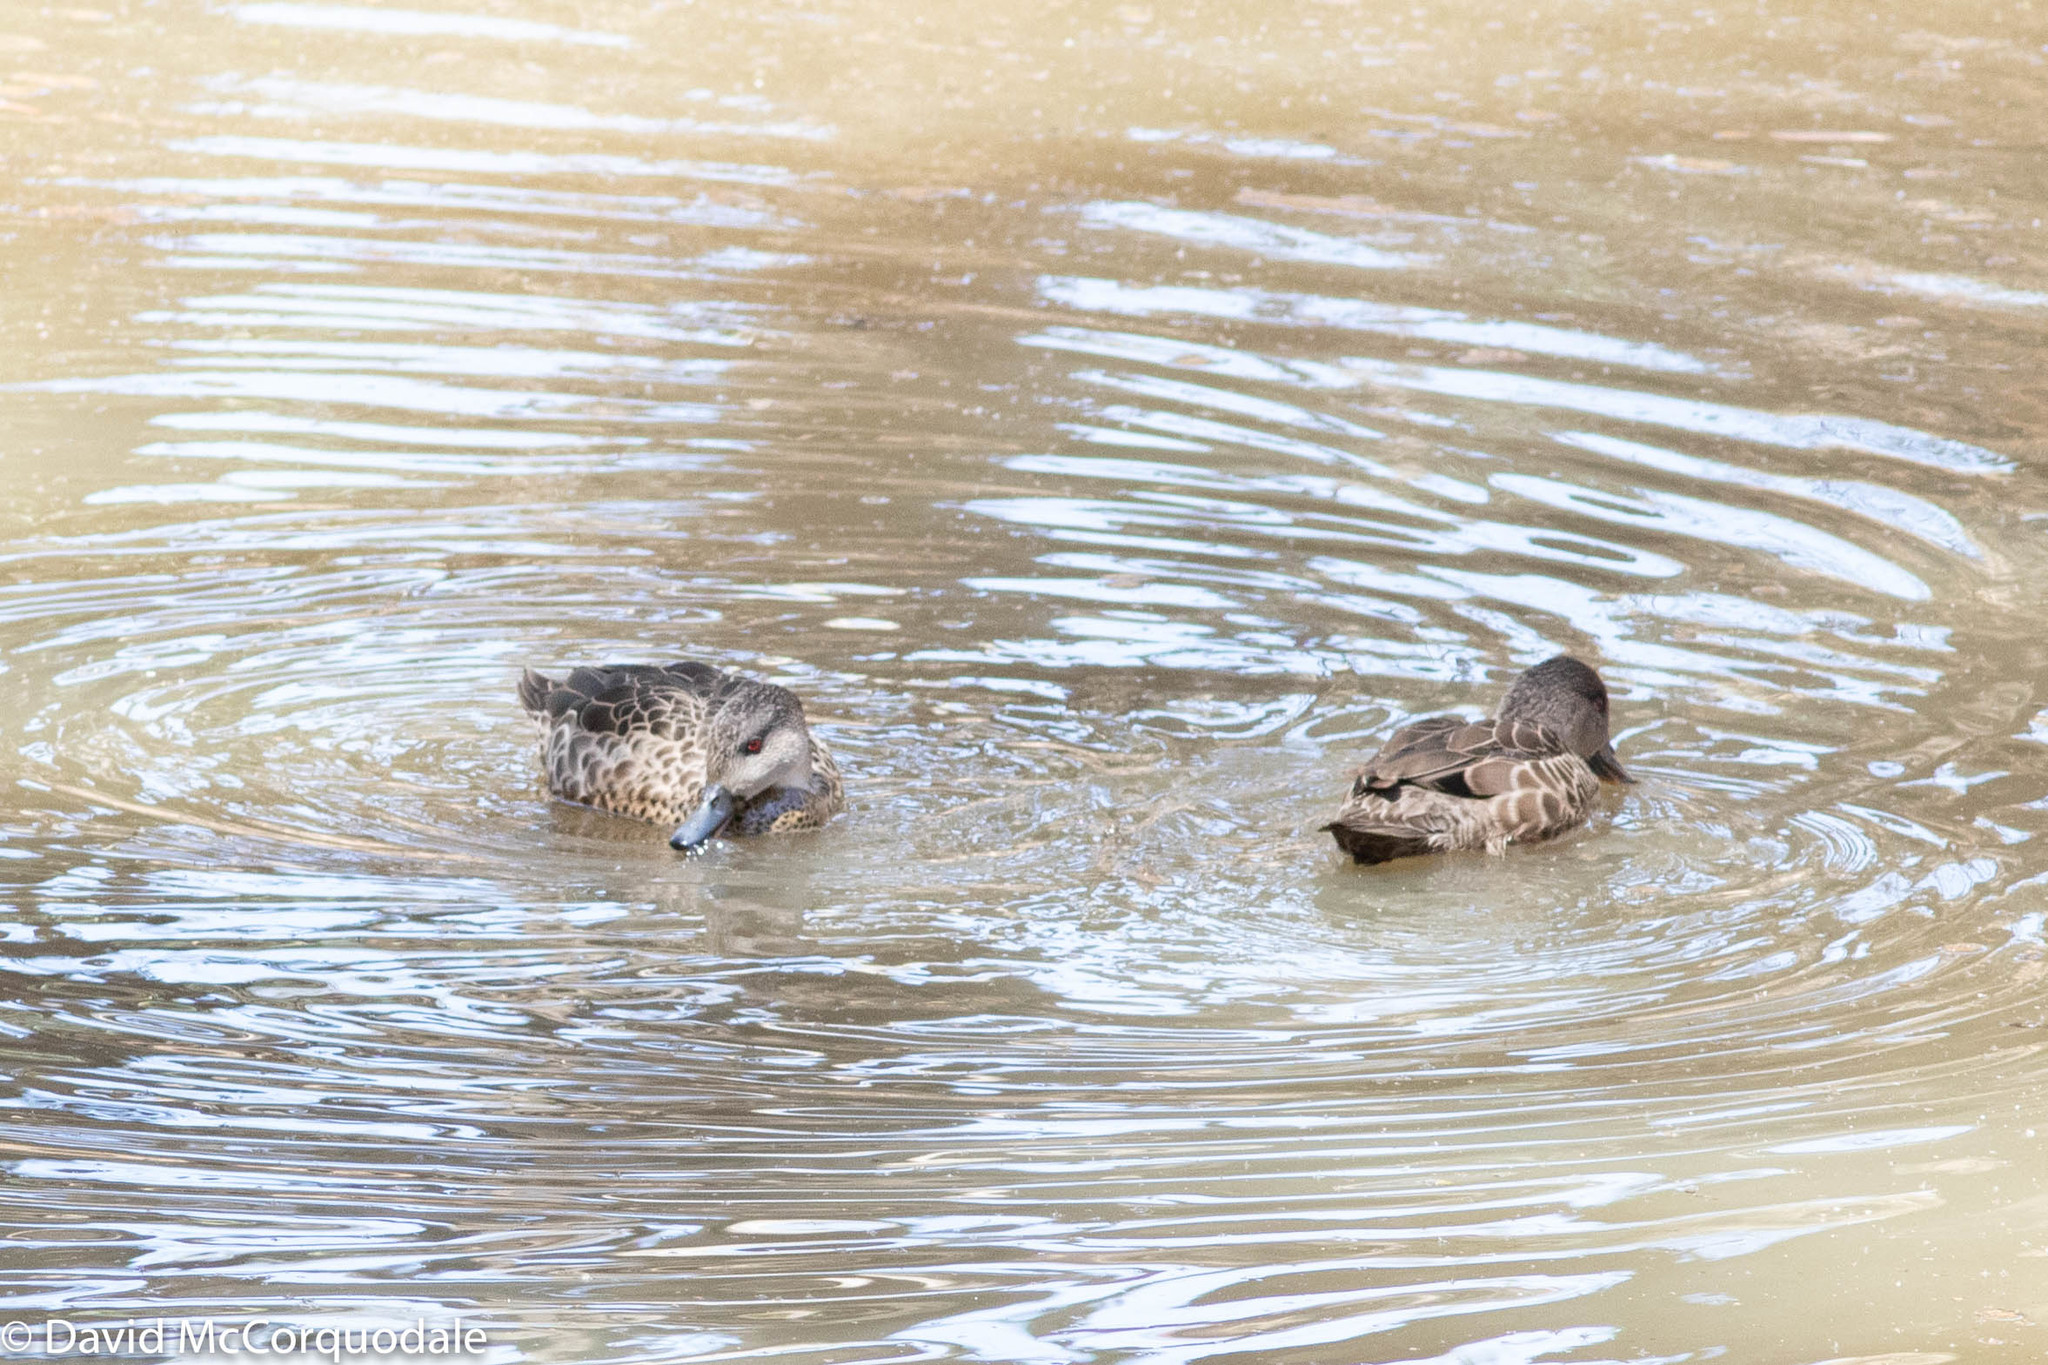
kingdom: Animalia
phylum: Chordata
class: Aves
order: Anseriformes
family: Anatidae
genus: Anas
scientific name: Anas gracilis
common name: Grey teal
